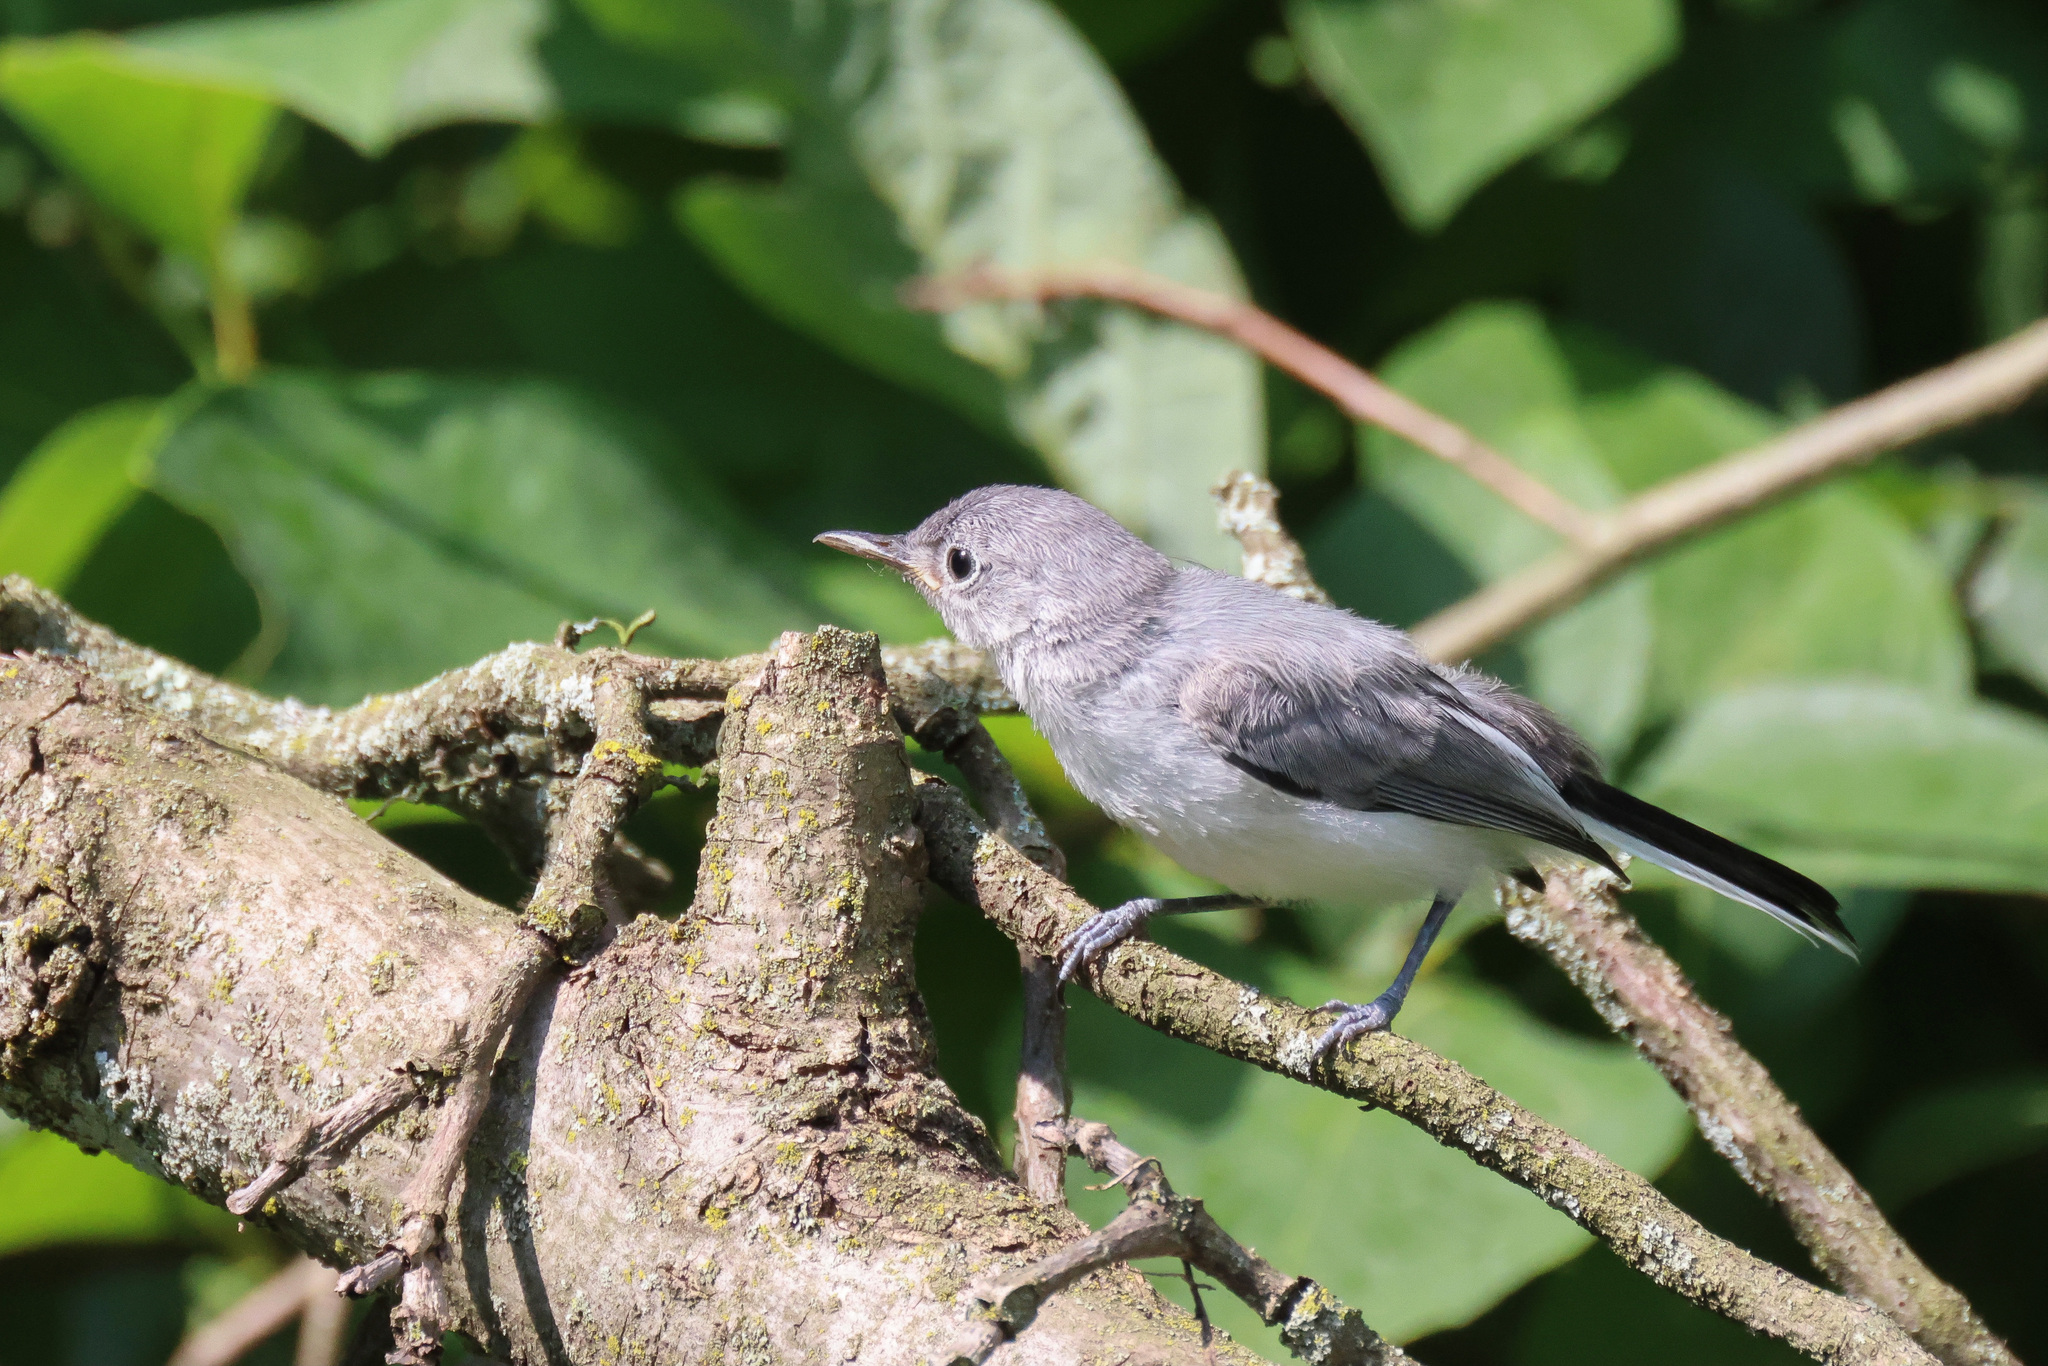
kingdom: Animalia
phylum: Chordata
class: Aves
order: Passeriformes
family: Polioptilidae
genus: Polioptila
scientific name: Polioptila caerulea
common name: Blue-gray gnatcatcher
